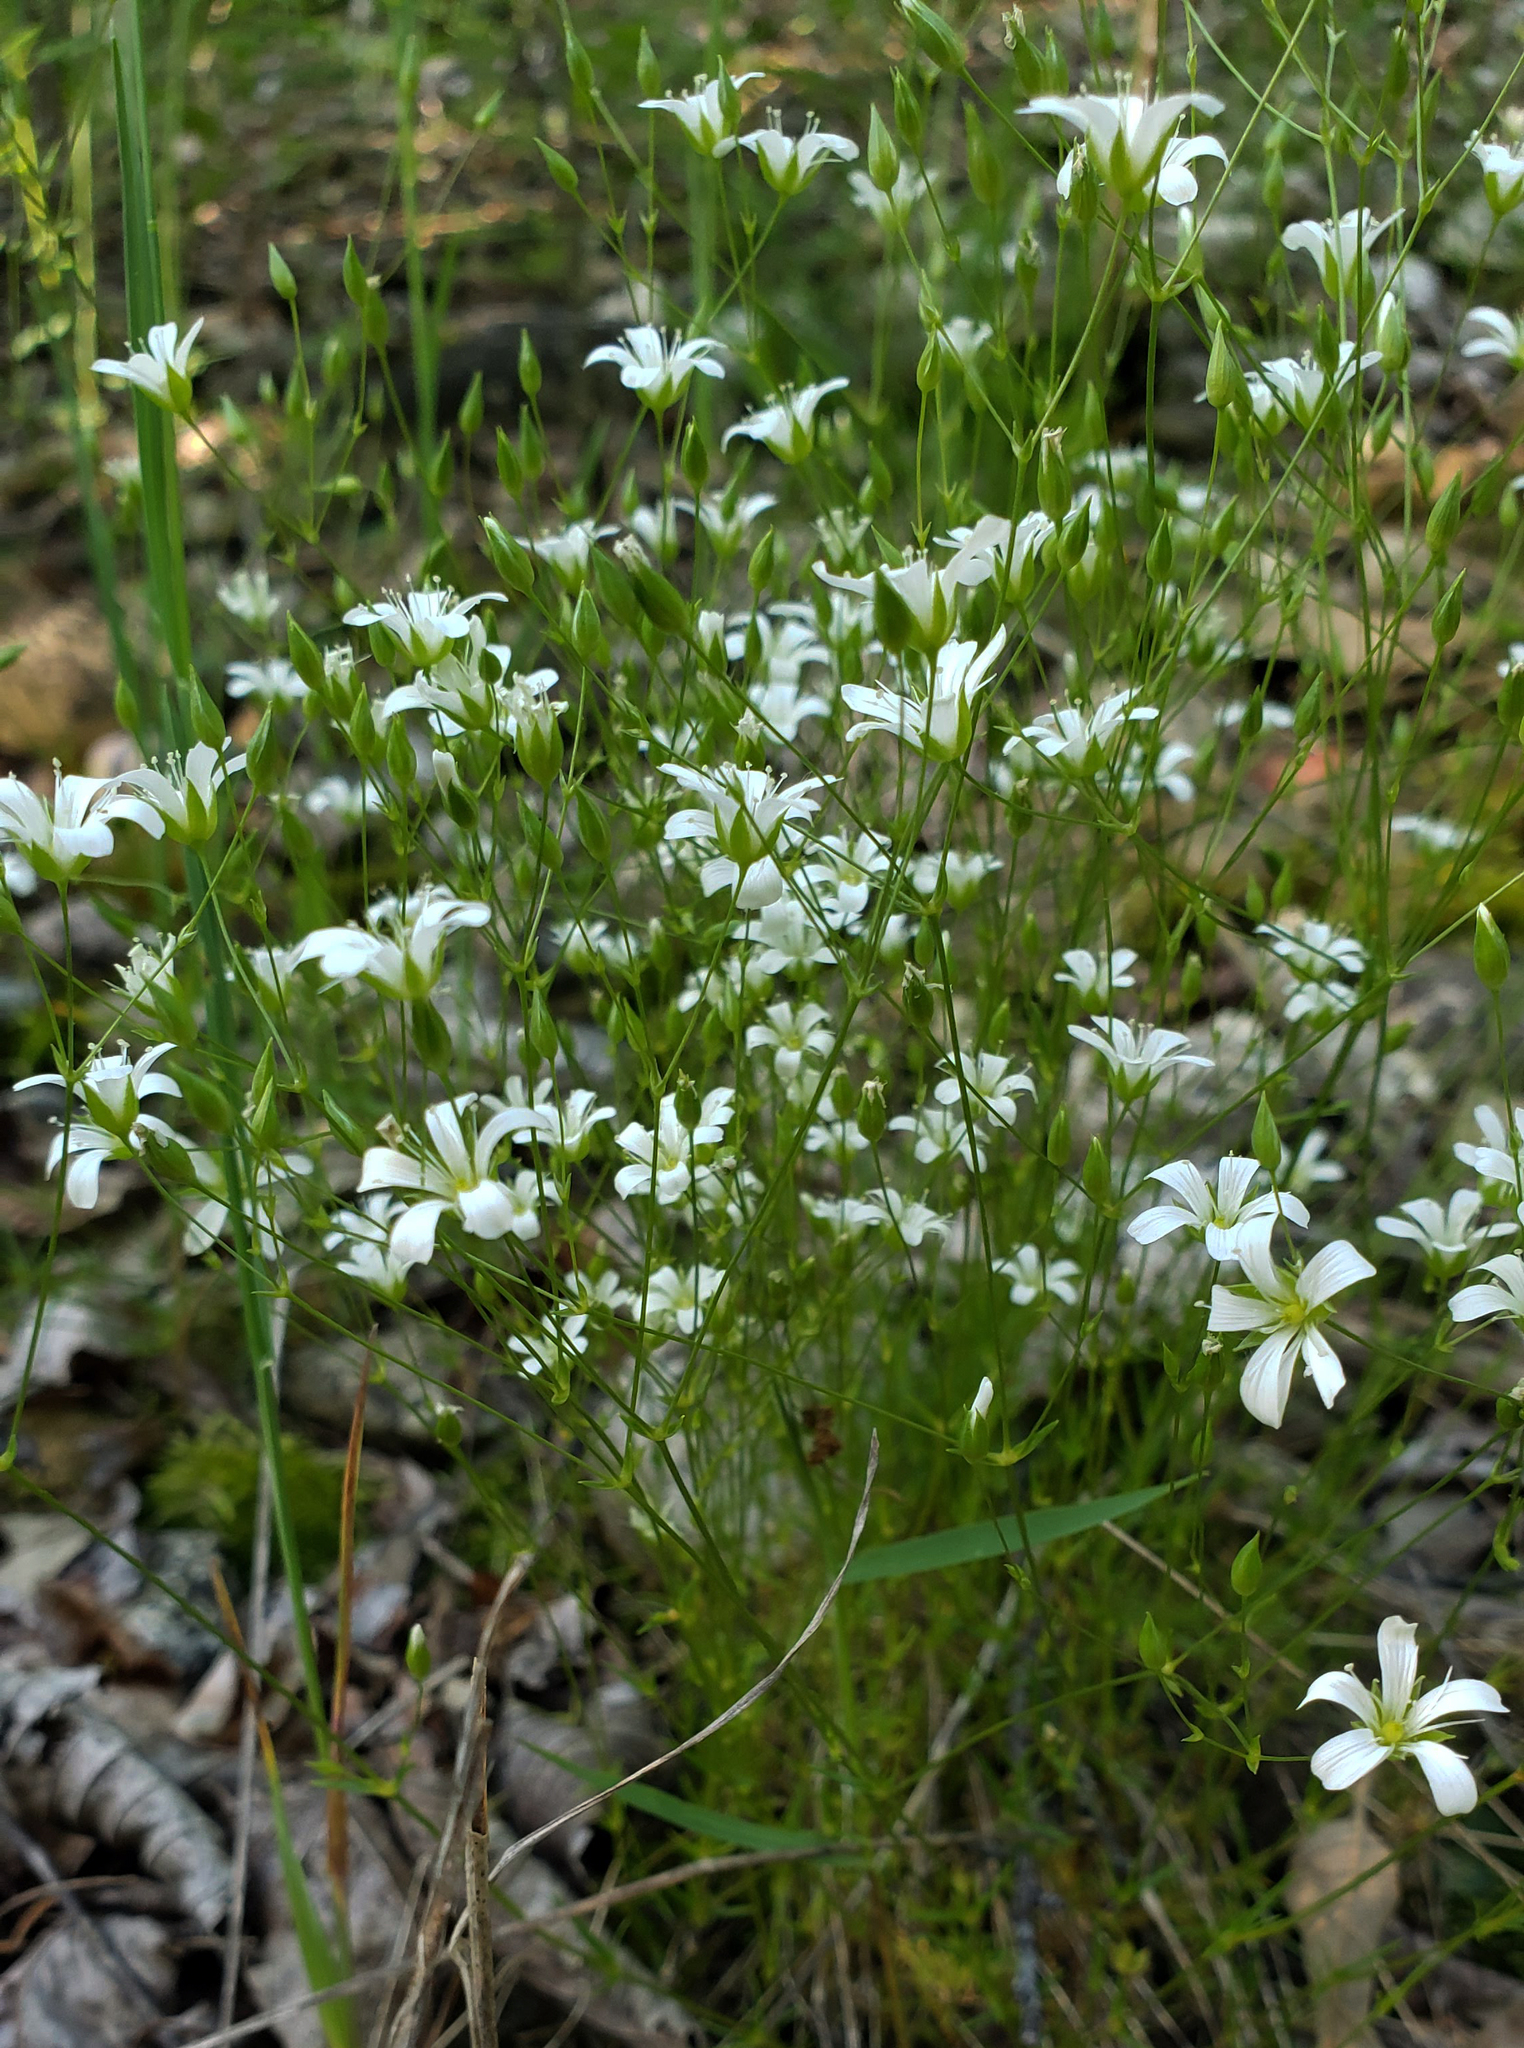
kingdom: Plantae
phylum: Tracheophyta
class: Magnoliopsida
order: Caryophyllales
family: Caryophyllaceae
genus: Sabulina
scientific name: Sabulina michauxii
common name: Michaux's stitchwort
